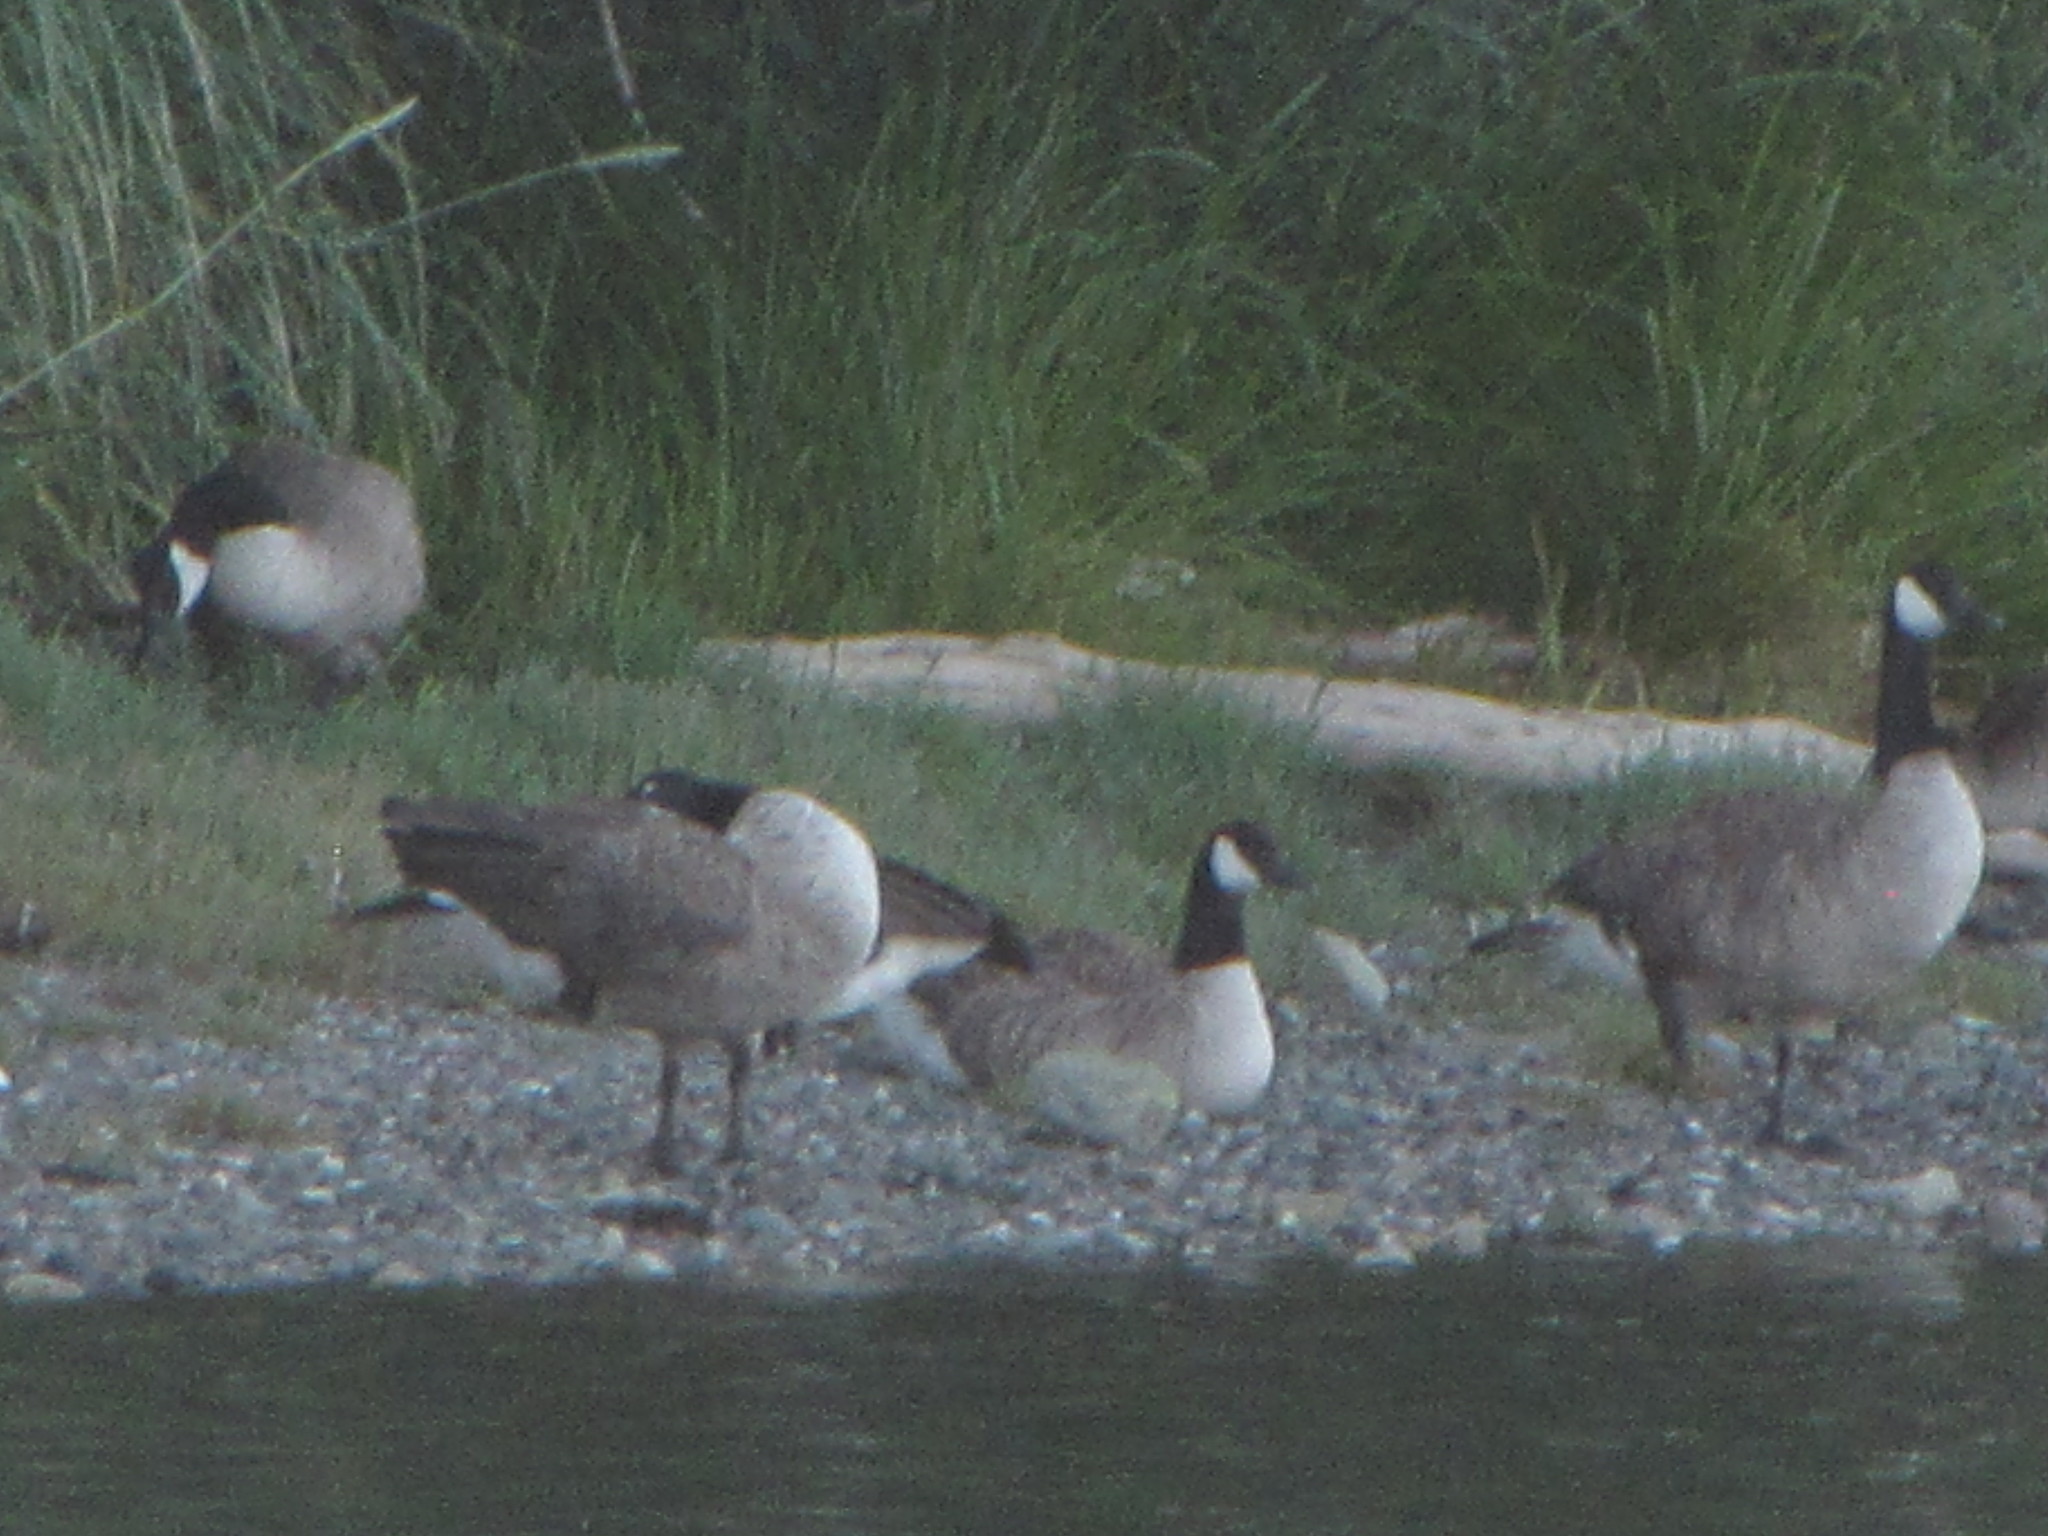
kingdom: Animalia
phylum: Chordata
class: Aves
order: Anseriformes
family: Anatidae
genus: Branta
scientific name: Branta canadensis
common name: Canada goose
